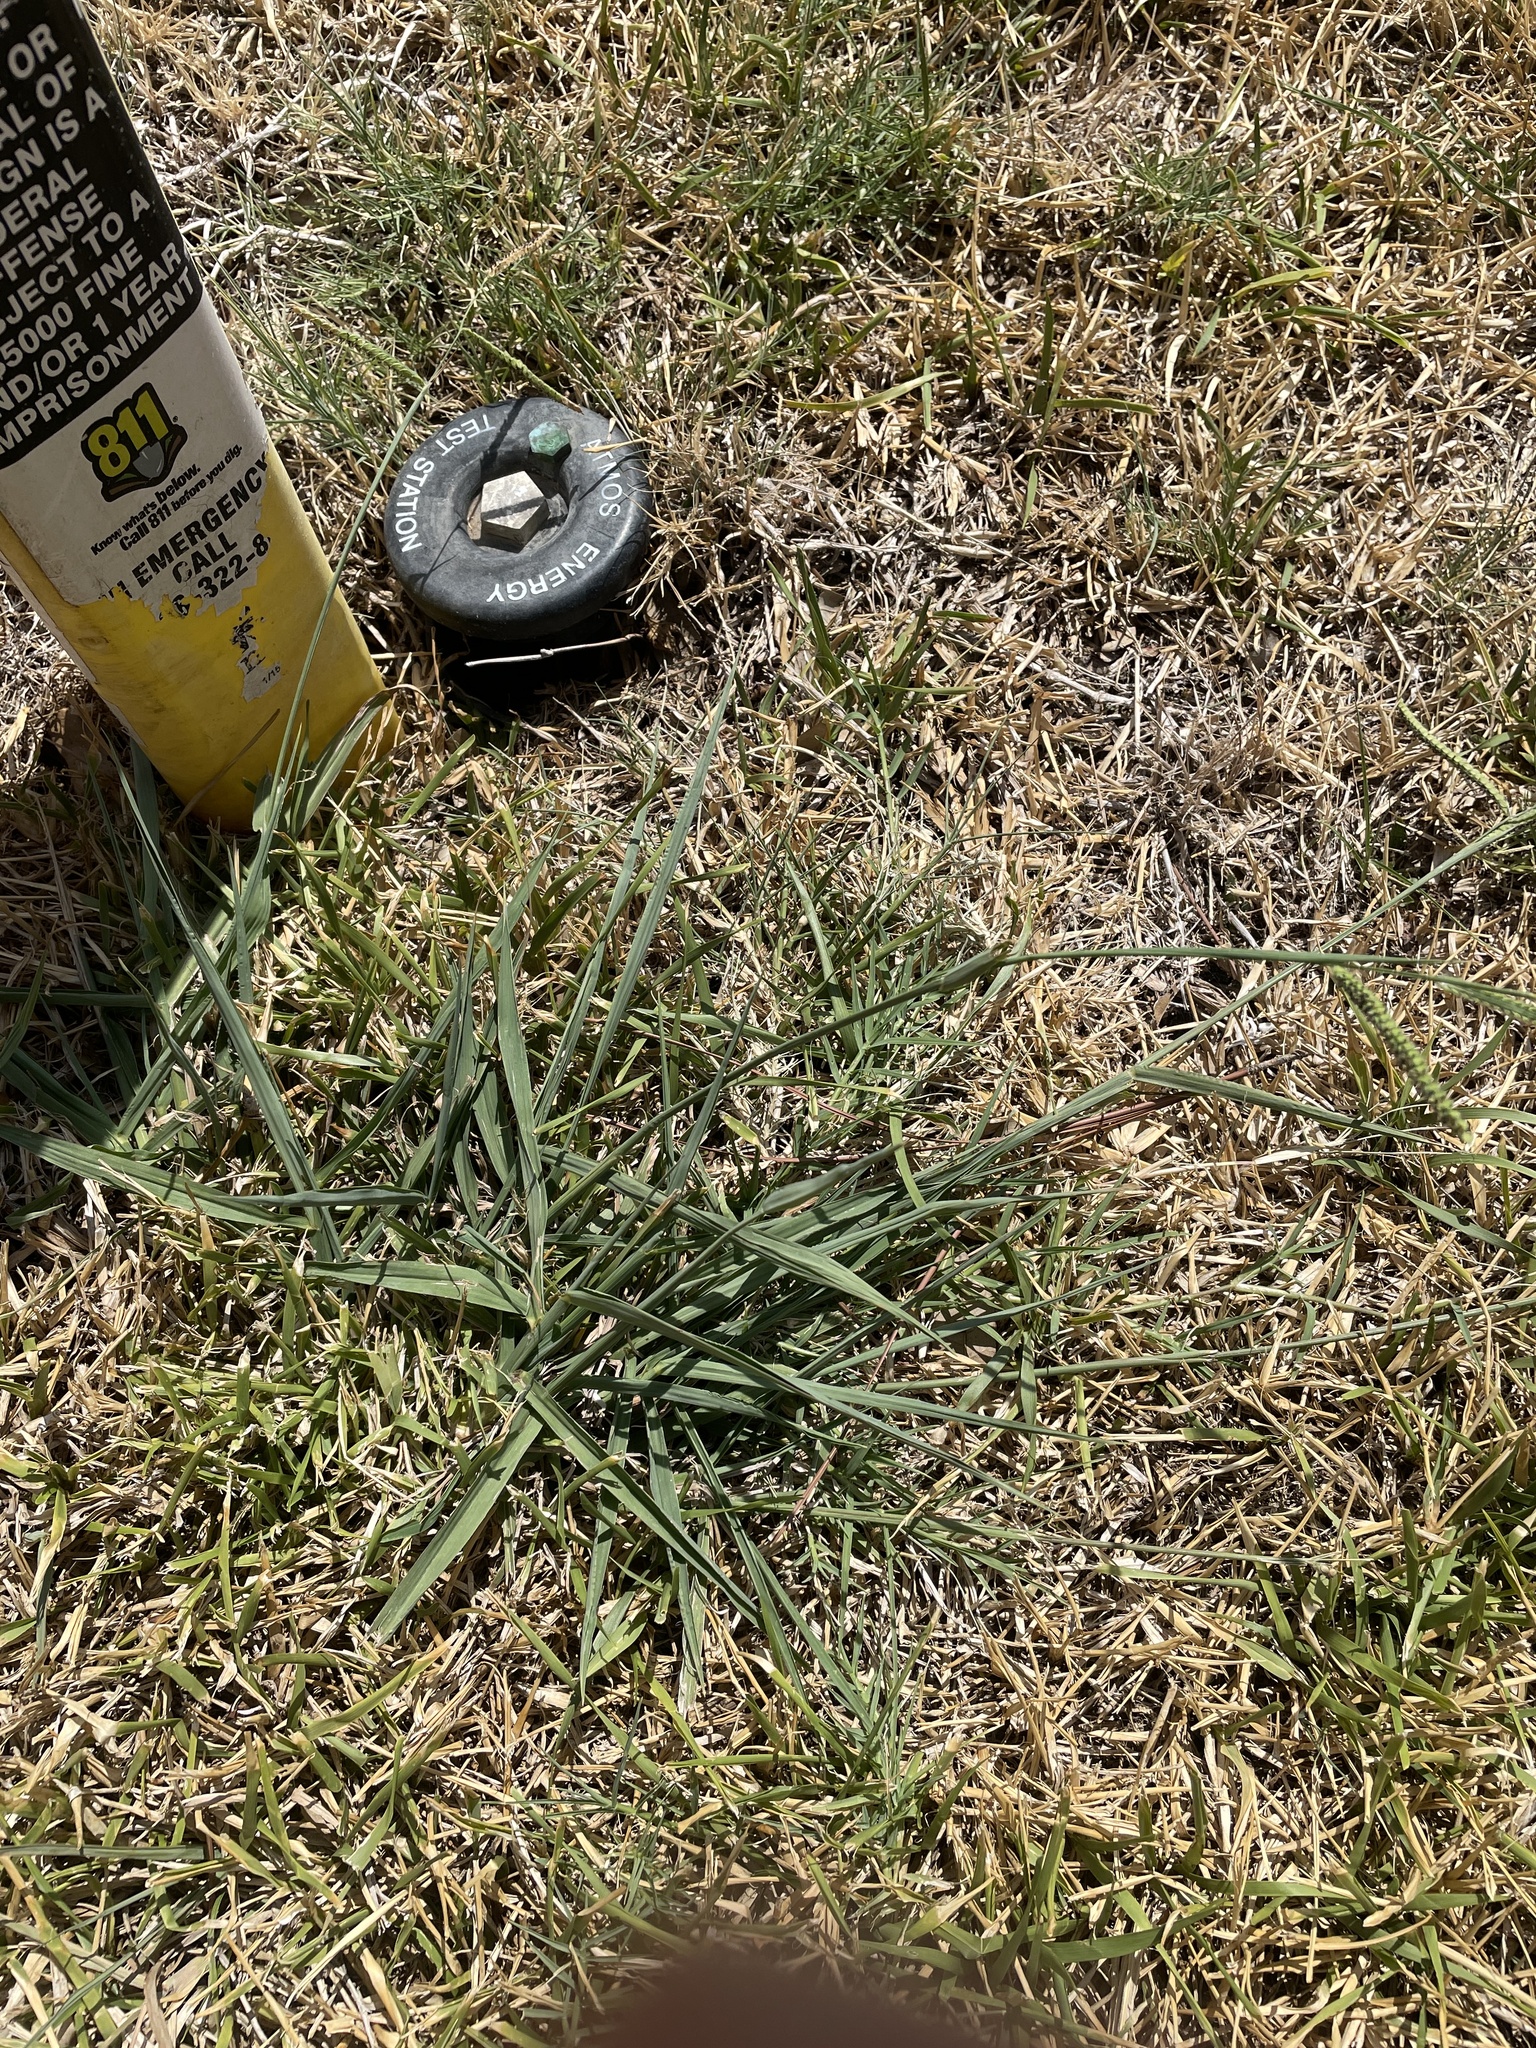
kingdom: Plantae
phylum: Tracheophyta
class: Liliopsida
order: Poales
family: Poaceae
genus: Paspalum
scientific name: Paspalum dilatatum
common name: Dallisgrass
